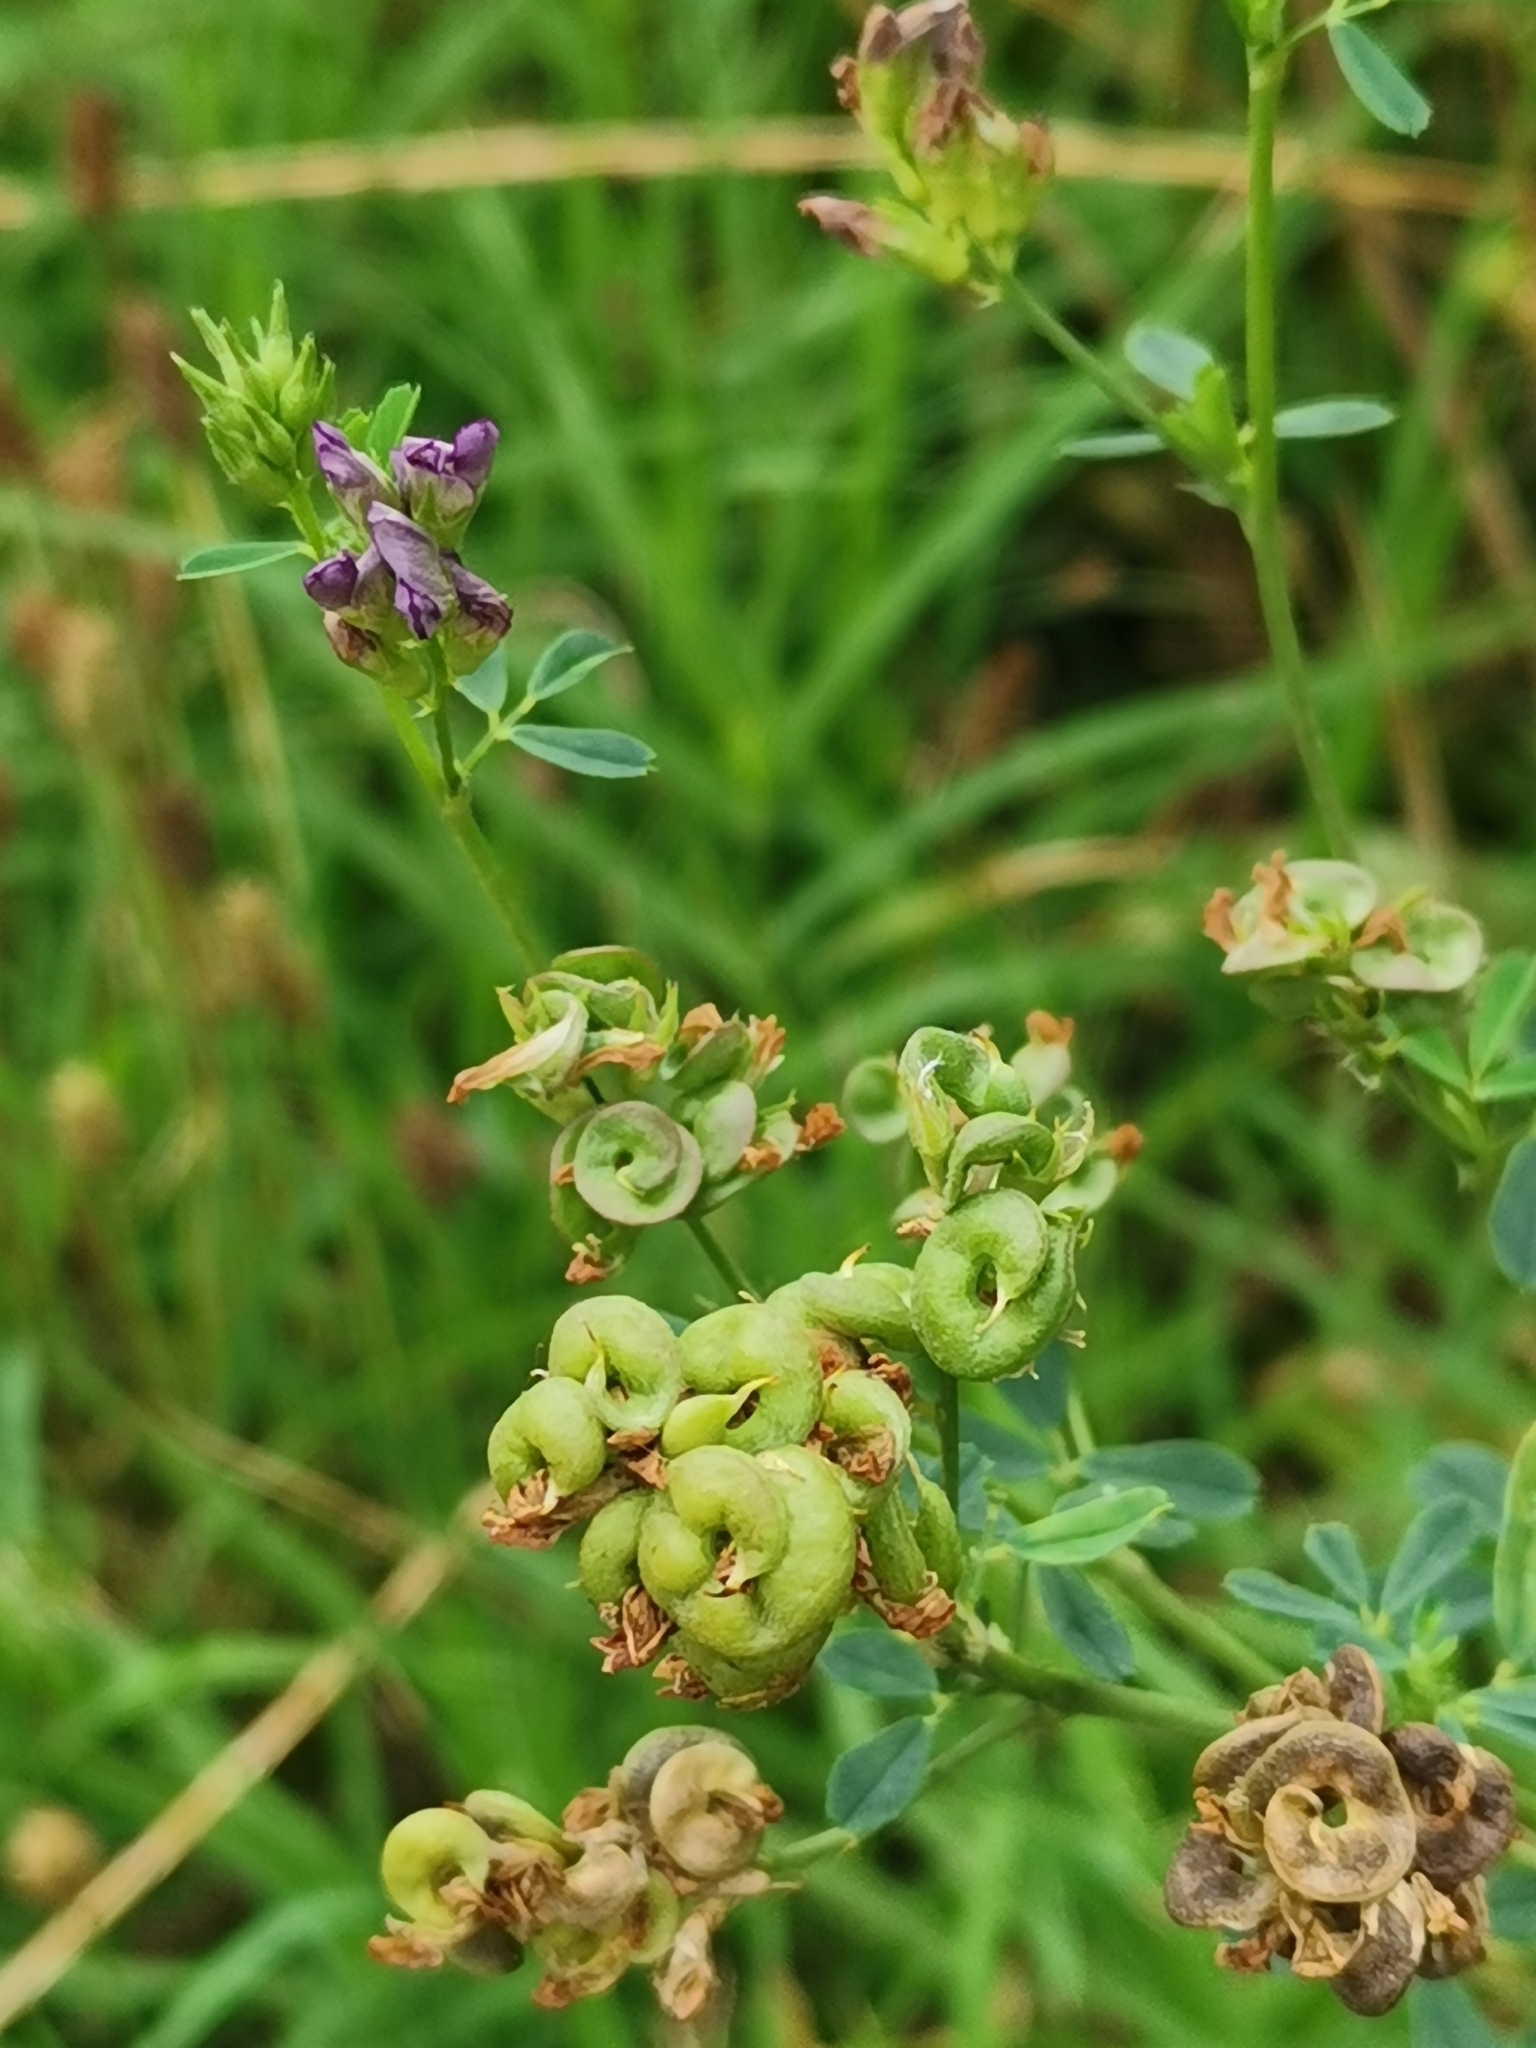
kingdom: Plantae
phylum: Tracheophyta
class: Magnoliopsida
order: Fabales
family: Fabaceae
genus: Medicago
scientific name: Medicago sativa
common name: Alfalfa
